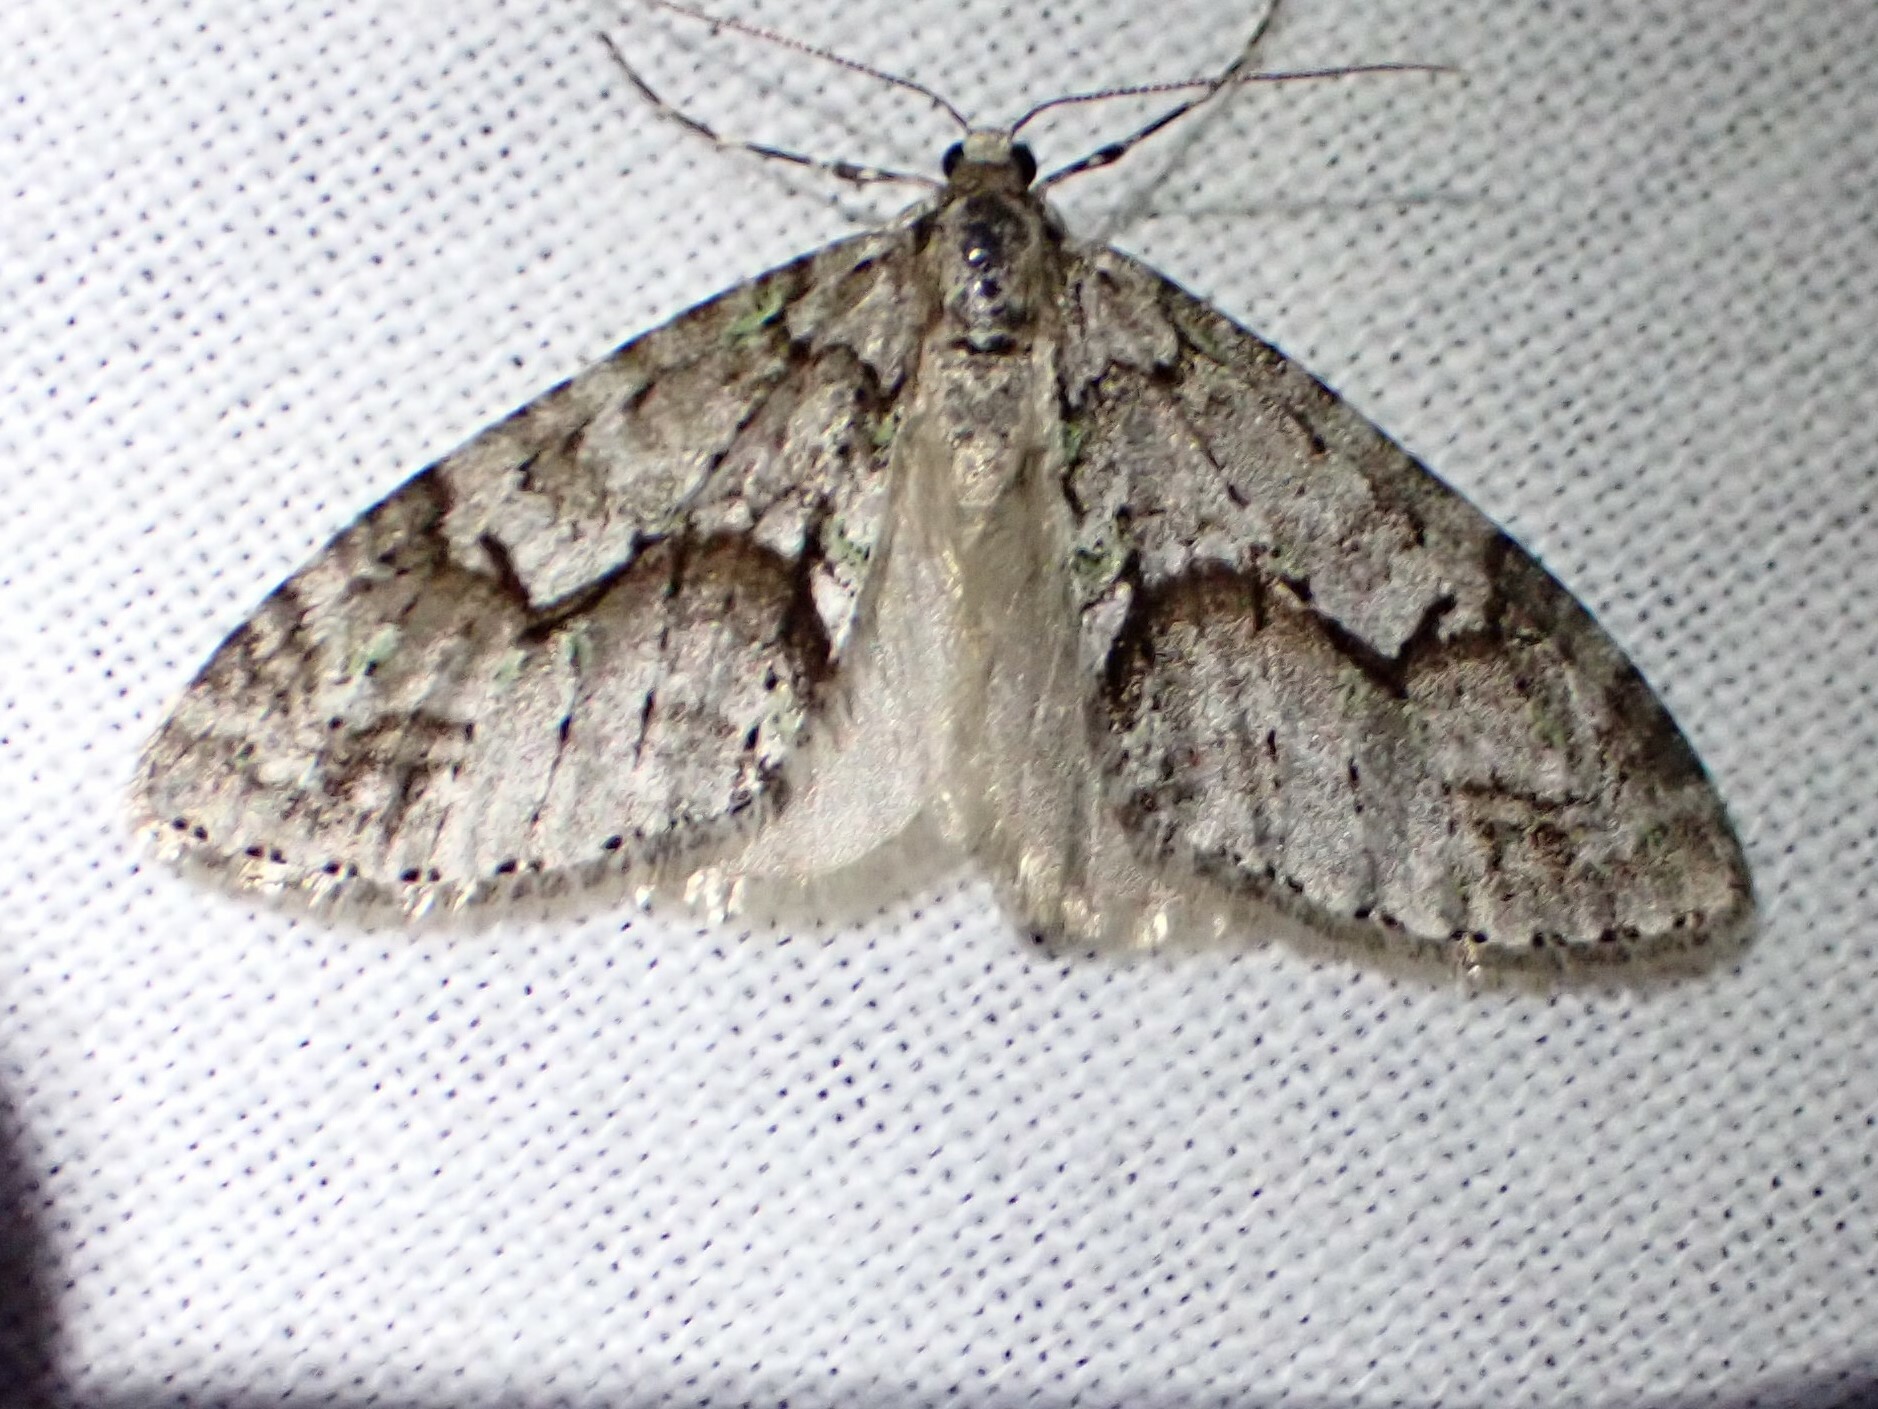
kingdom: Animalia
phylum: Arthropoda
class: Insecta
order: Lepidoptera
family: Geometridae
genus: Cladara
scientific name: Cladara limitaria
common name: Mottled gray carpet
